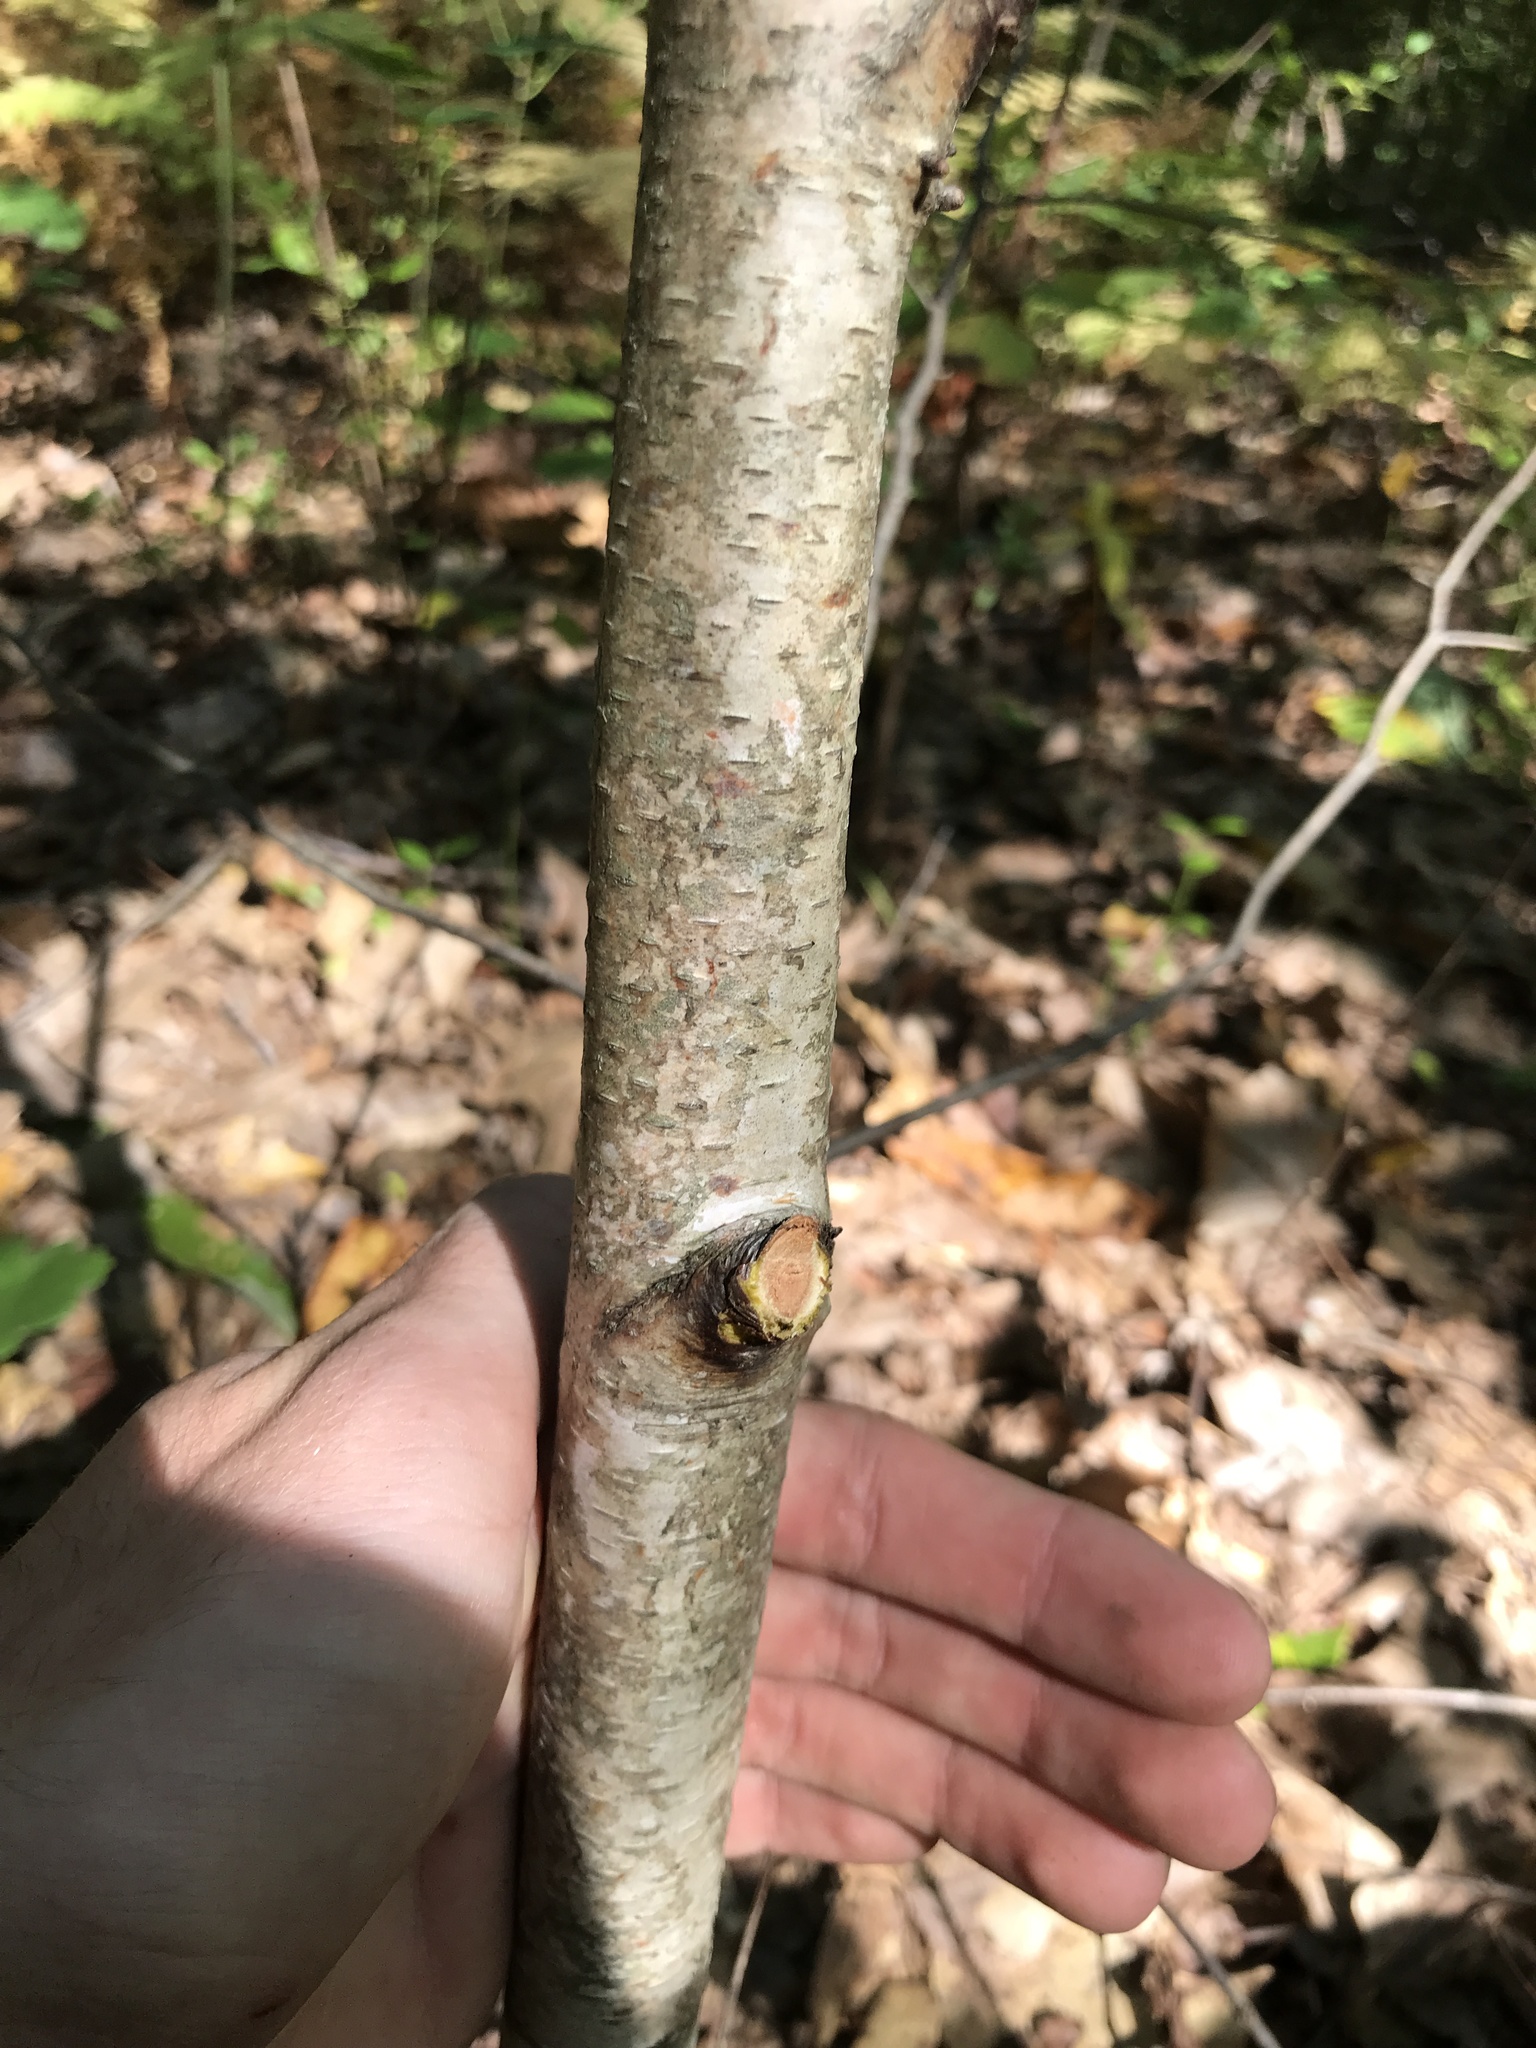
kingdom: Plantae
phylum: Tracheophyta
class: Magnoliopsida
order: Fagales
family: Betulaceae
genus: Betula
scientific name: Betula populifolia
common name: Fire birch
